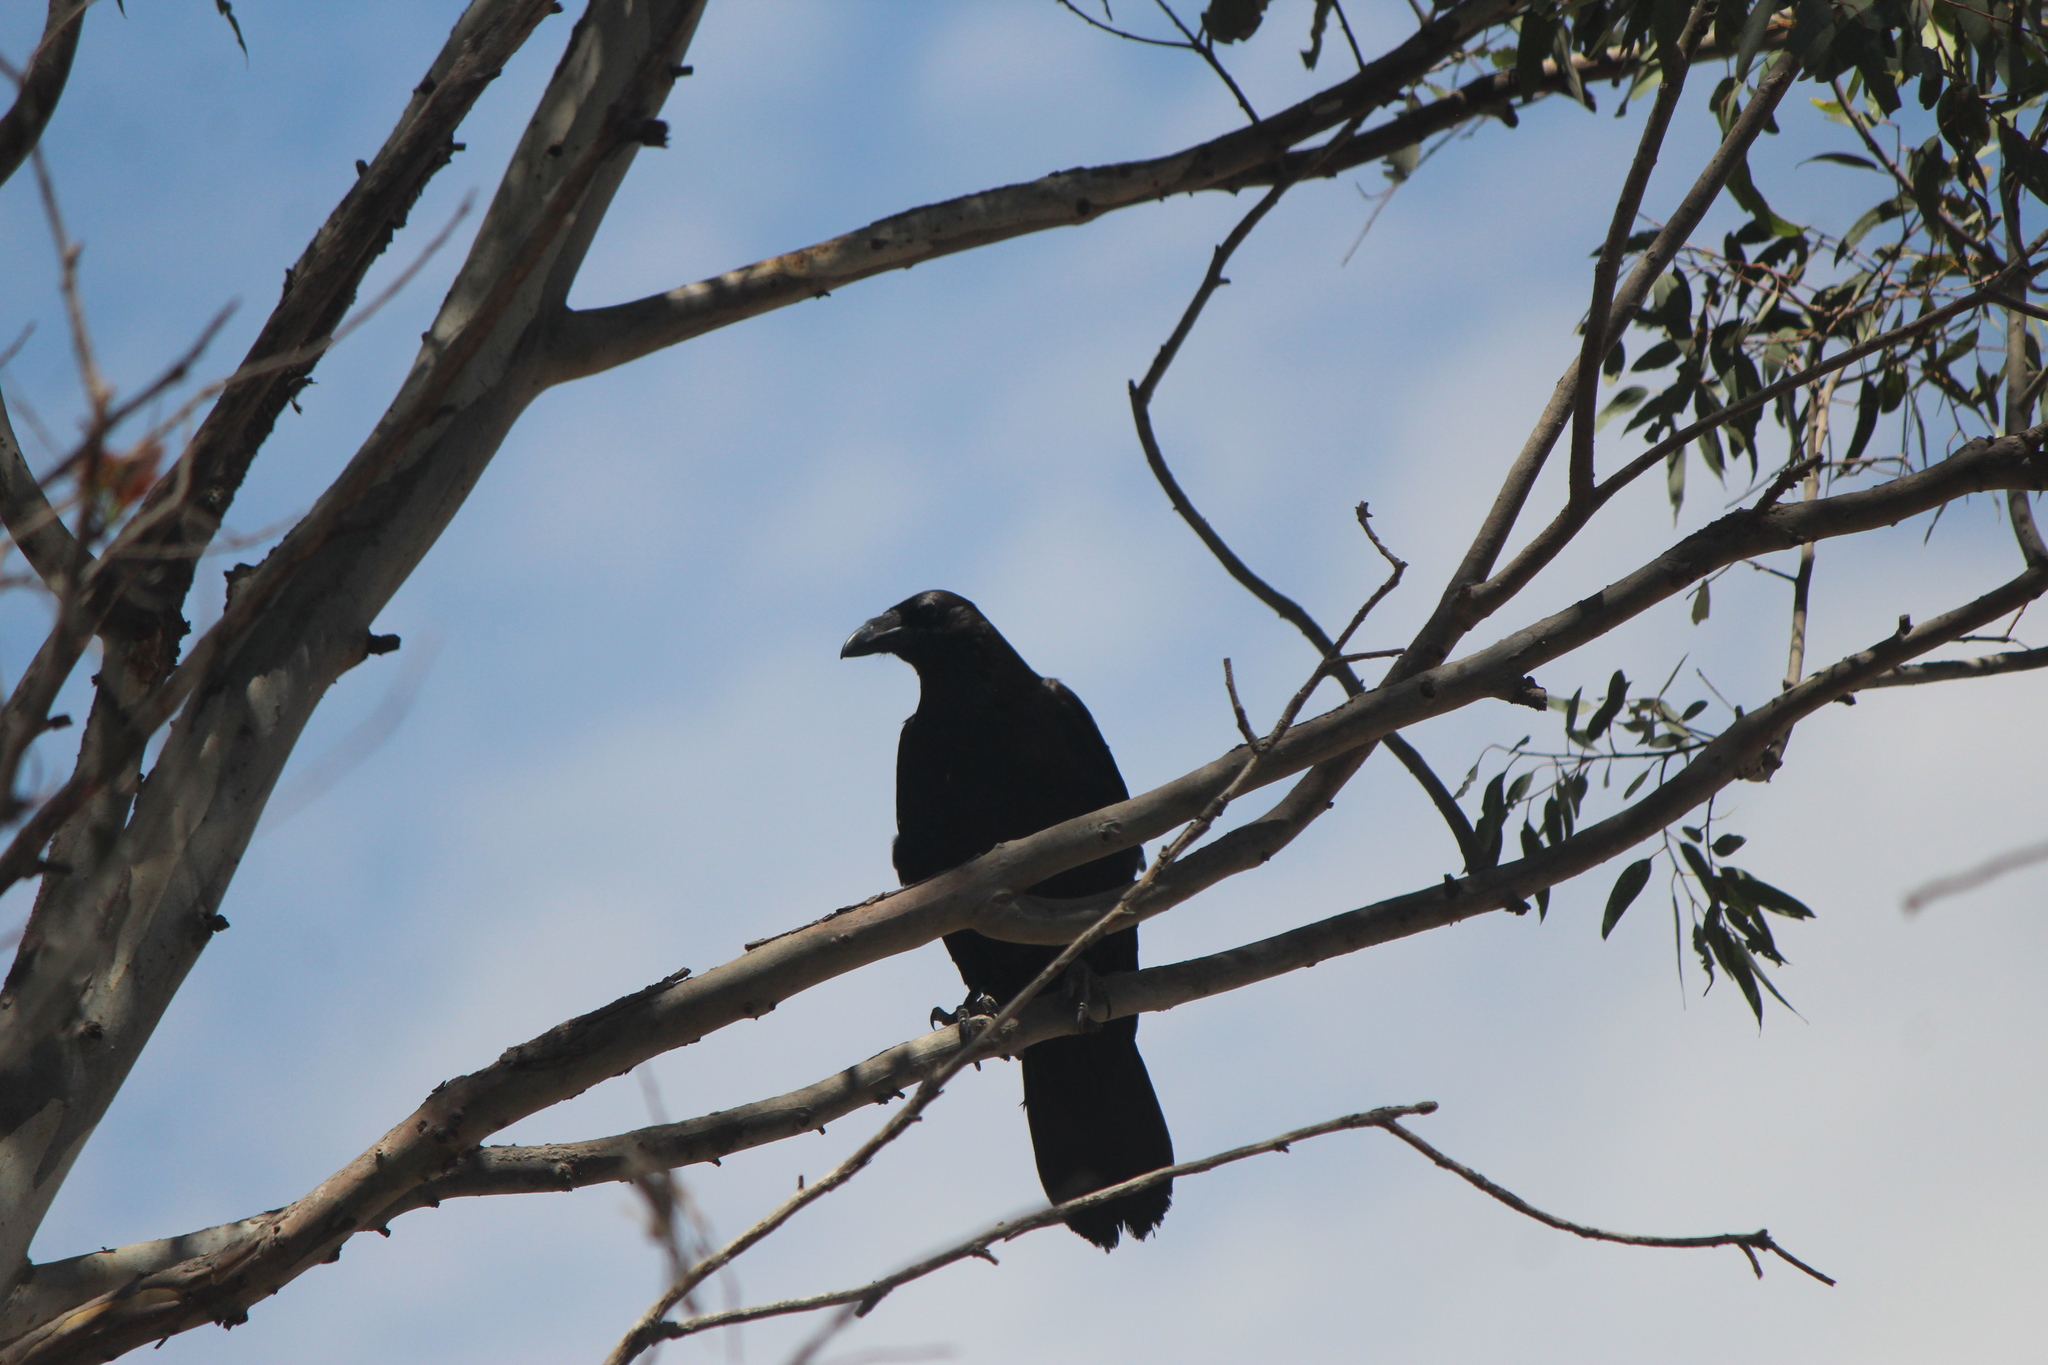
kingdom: Animalia
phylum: Chordata
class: Aves
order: Passeriformes
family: Corvidae
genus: Corvus
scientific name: Corvus corax
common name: Common raven
